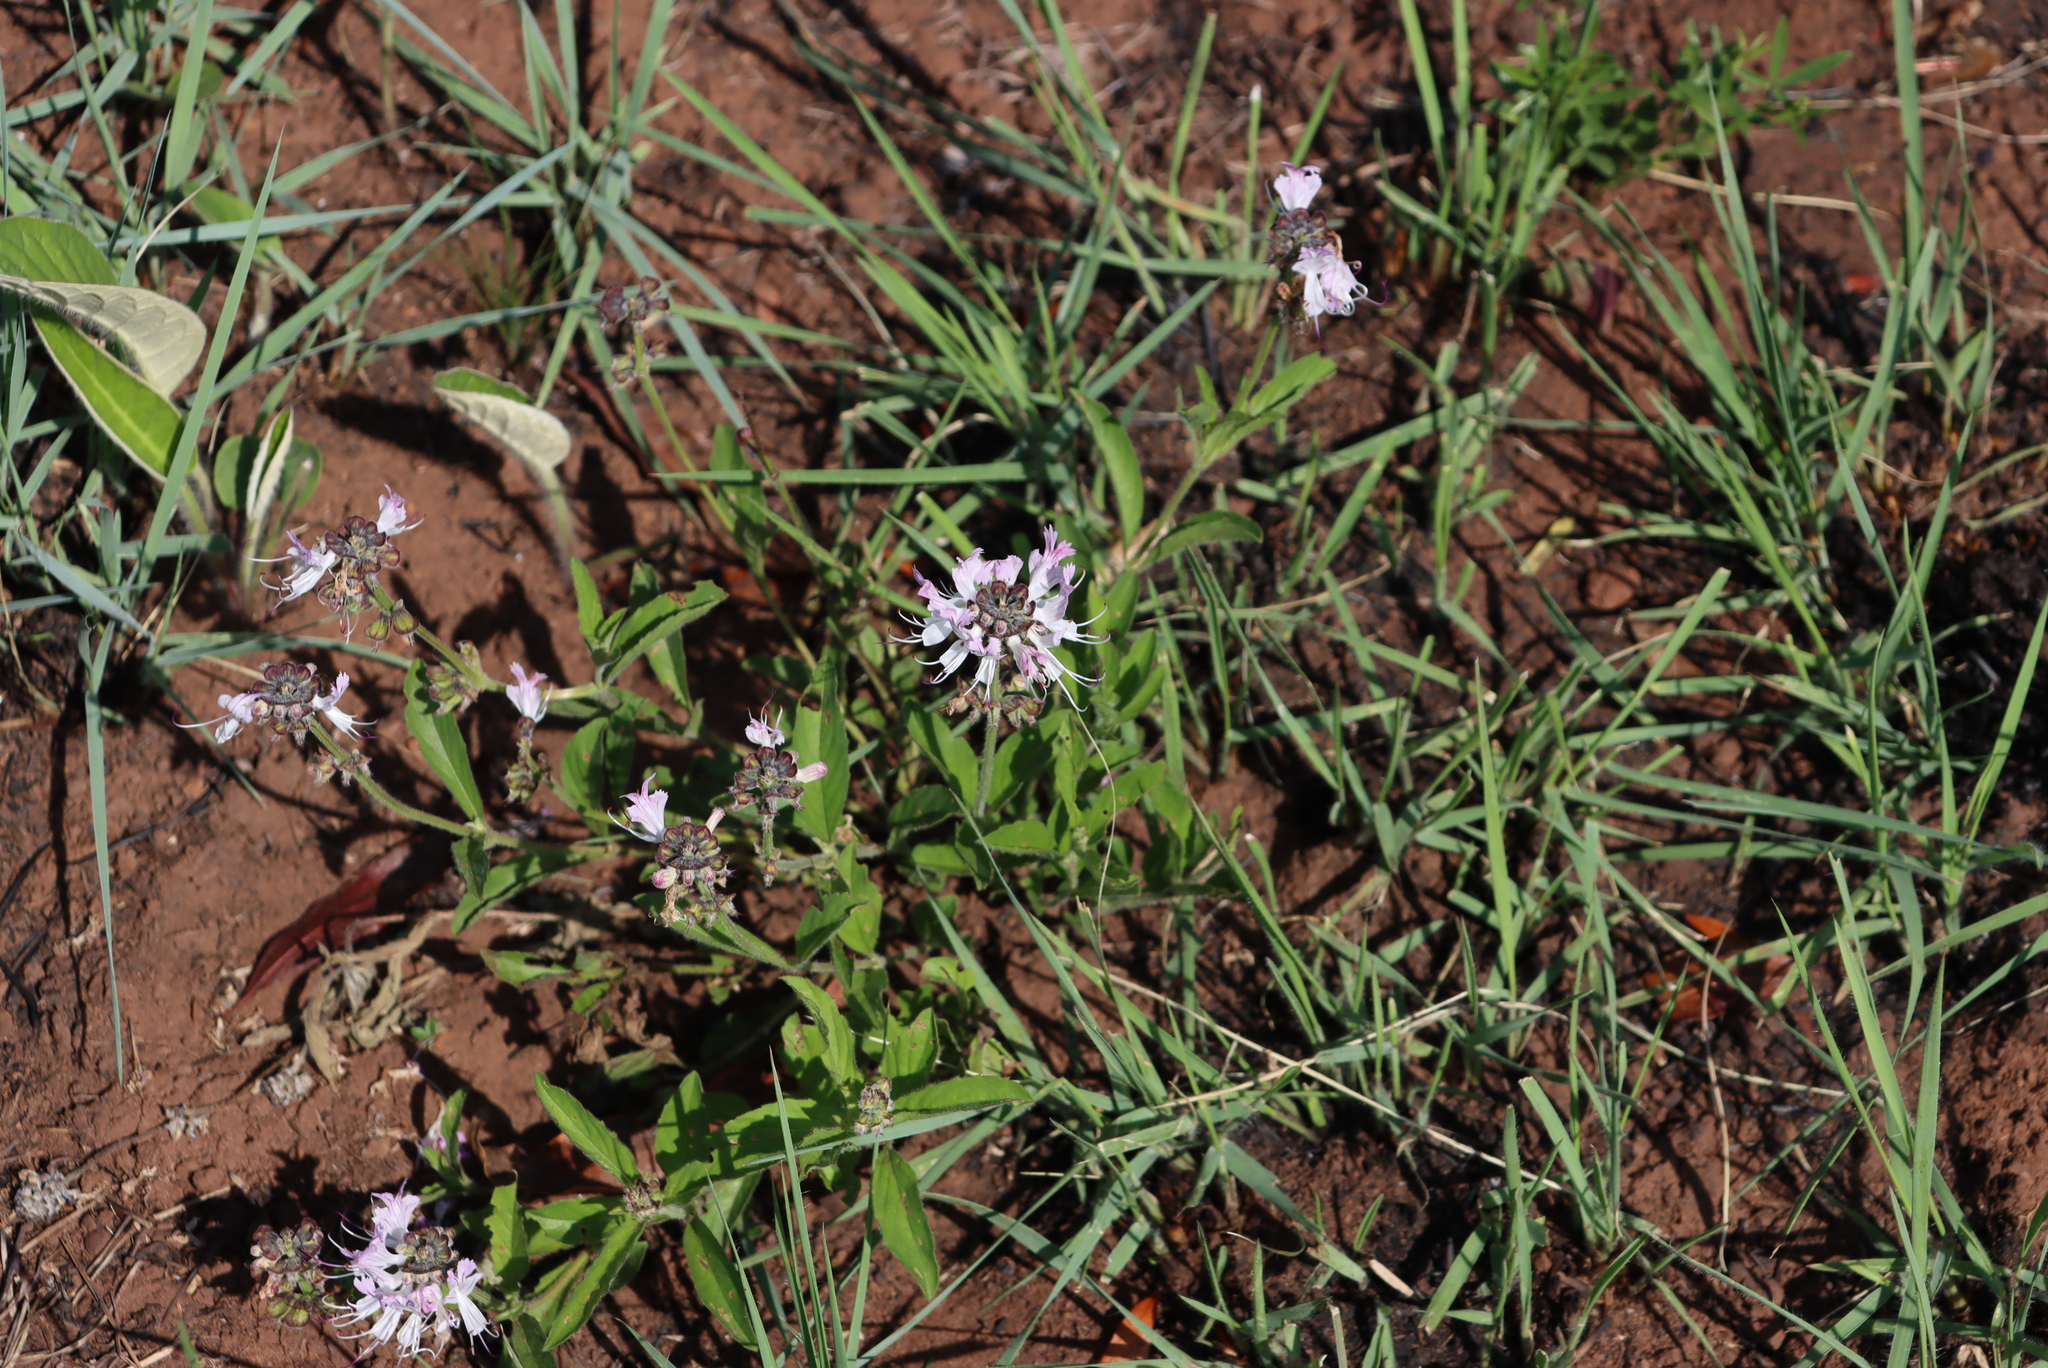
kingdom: Plantae
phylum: Tracheophyta
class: Magnoliopsida
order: Lamiales
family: Lamiaceae
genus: Ocimum
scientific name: Ocimum obovatum
